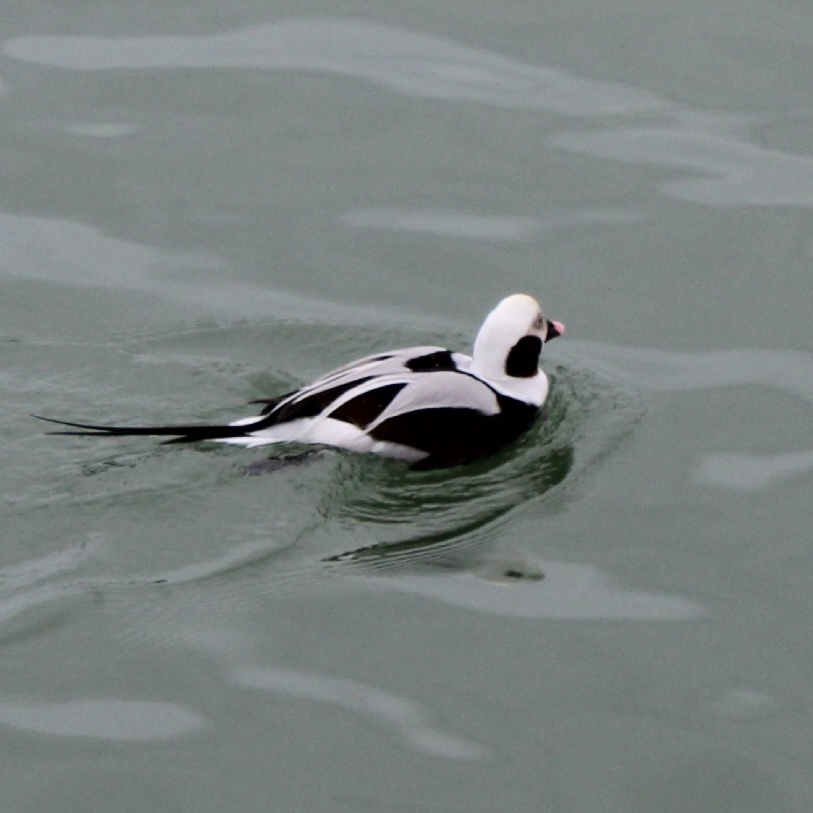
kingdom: Animalia
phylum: Chordata
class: Aves
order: Anseriformes
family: Anatidae
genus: Clangula
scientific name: Clangula hyemalis
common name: Long-tailed duck
